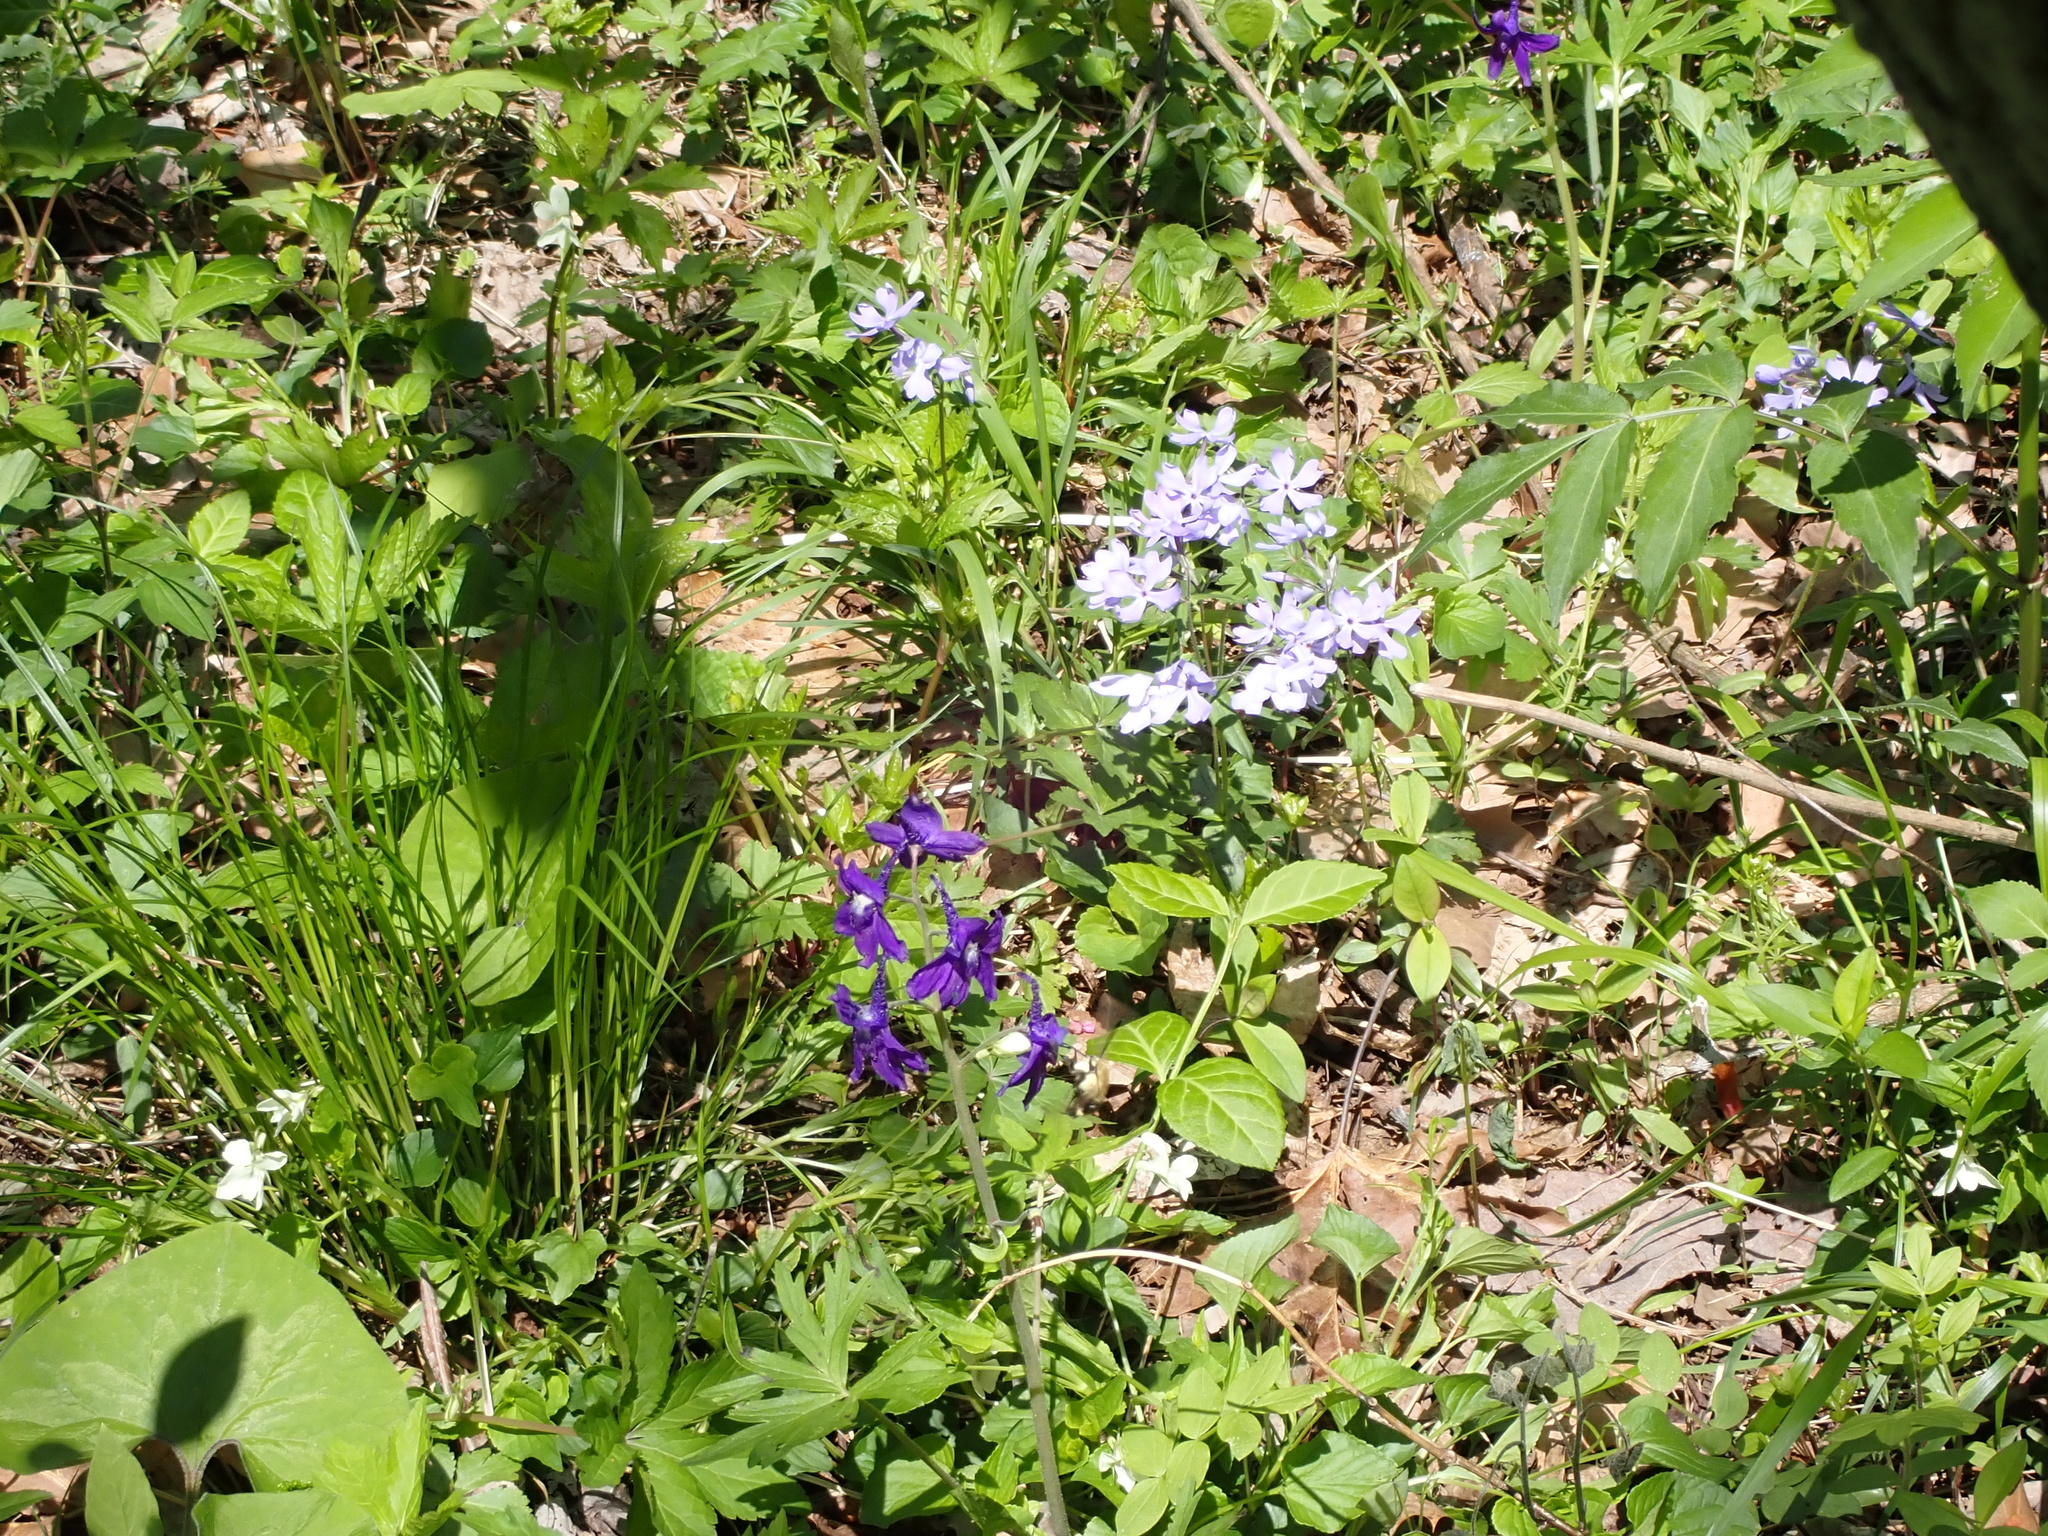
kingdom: Plantae
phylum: Tracheophyta
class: Magnoliopsida
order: Ericales
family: Polemoniaceae
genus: Phlox
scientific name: Phlox divaricata
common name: Blue phlox
